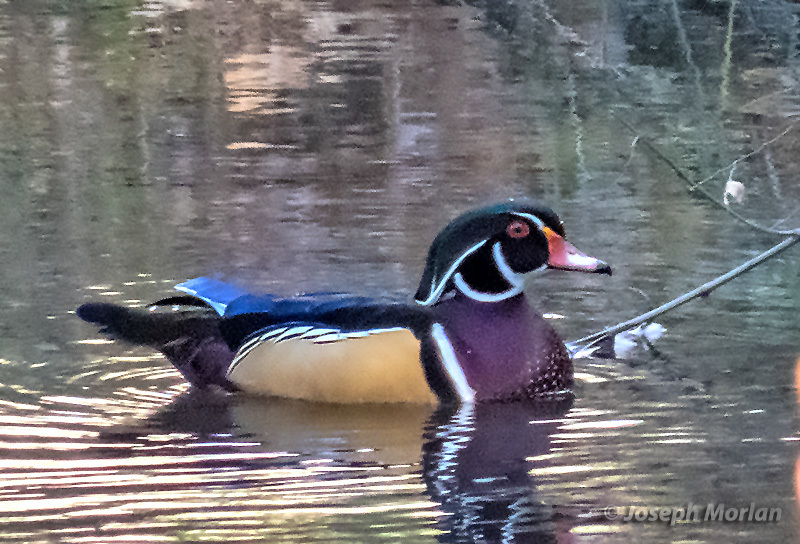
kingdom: Animalia
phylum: Chordata
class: Aves
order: Anseriformes
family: Anatidae
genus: Aix
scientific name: Aix sponsa
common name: Wood duck
